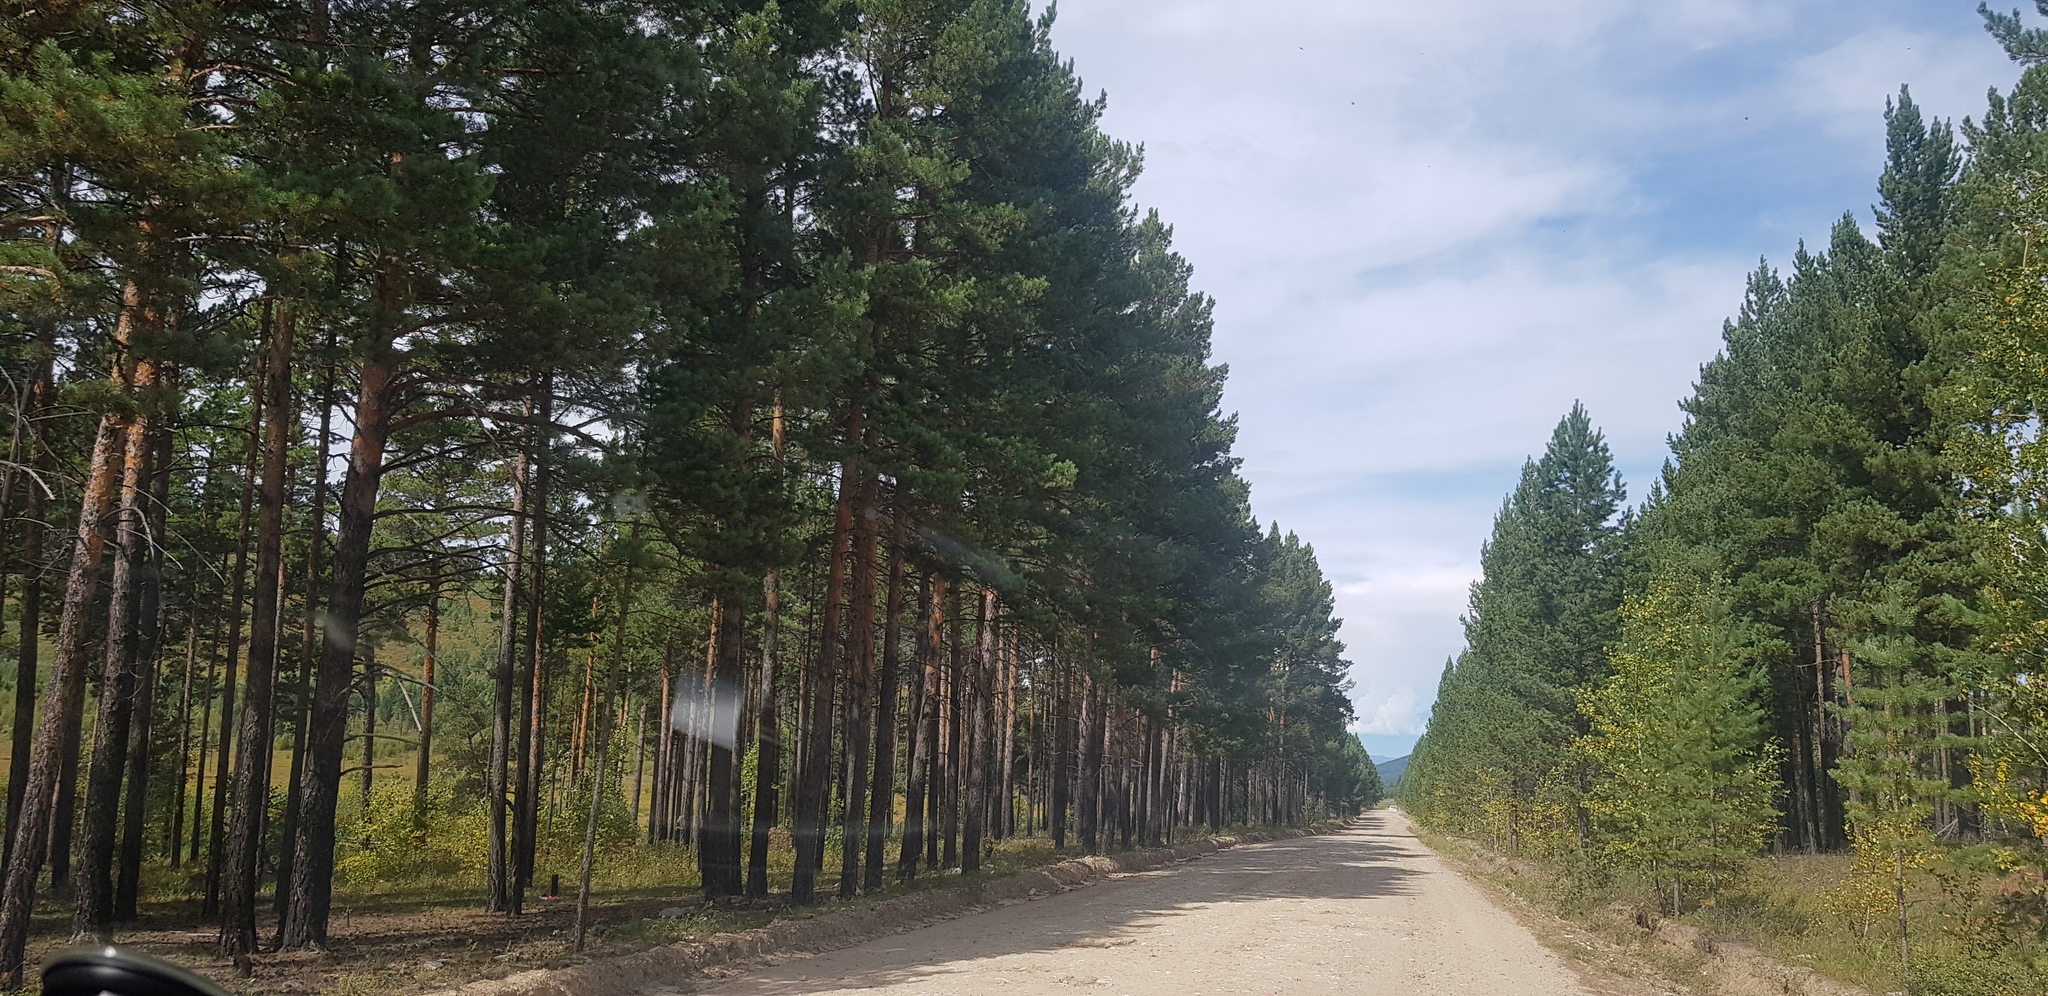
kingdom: Plantae
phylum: Tracheophyta
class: Pinopsida
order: Pinales
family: Pinaceae
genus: Pinus
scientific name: Pinus sylvestris
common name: Scots pine
